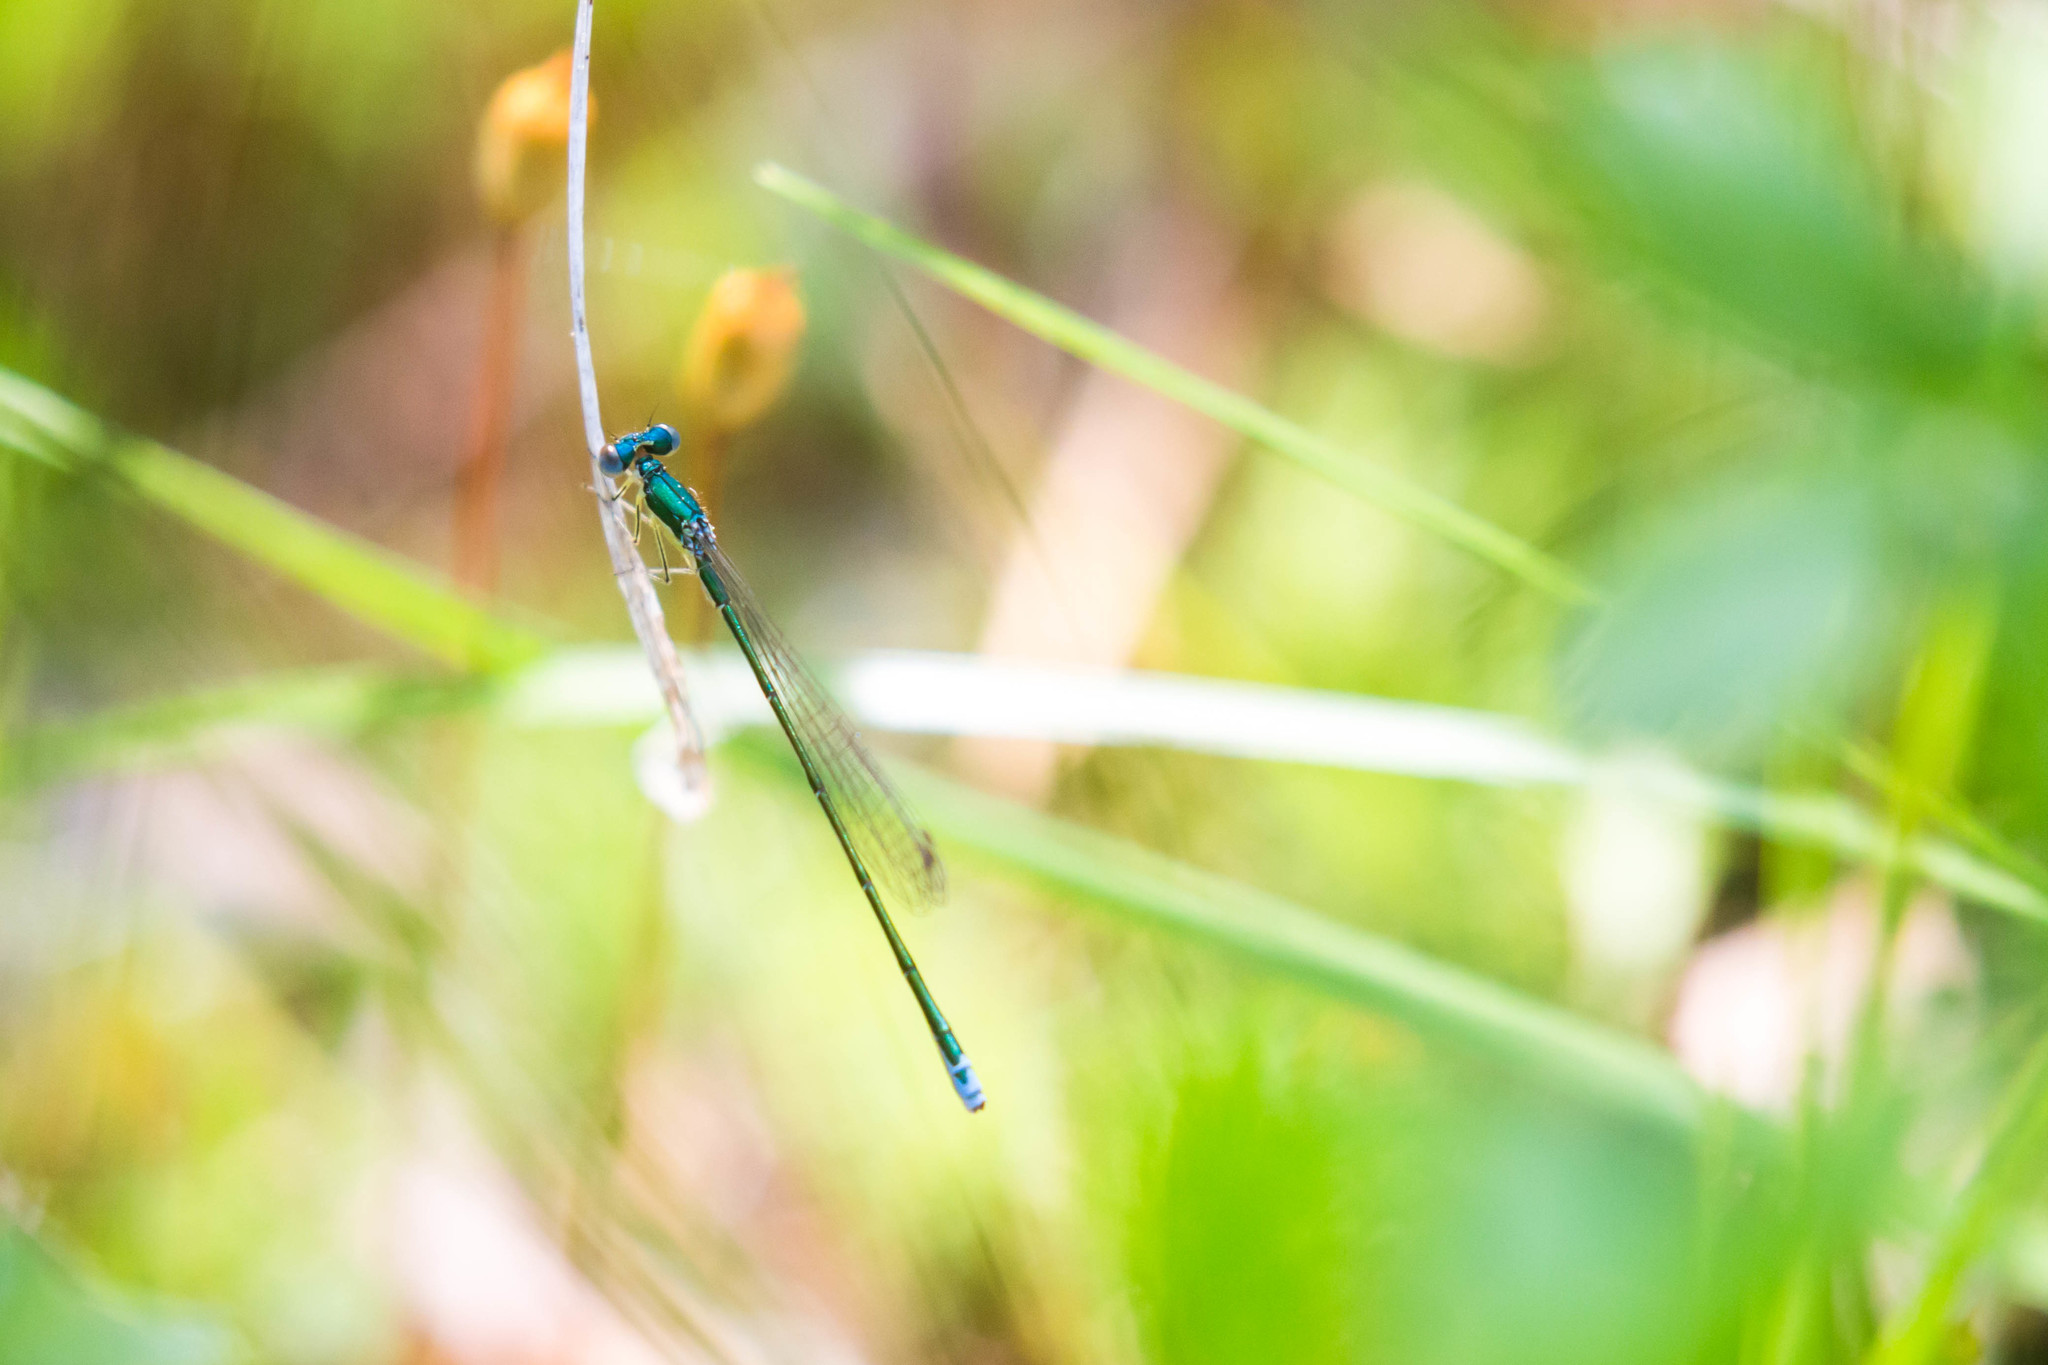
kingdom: Animalia
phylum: Arthropoda
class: Insecta
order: Odonata
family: Coenagrionidae
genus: Nehalennia
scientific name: Nehalennia irene
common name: Sedge sprite
